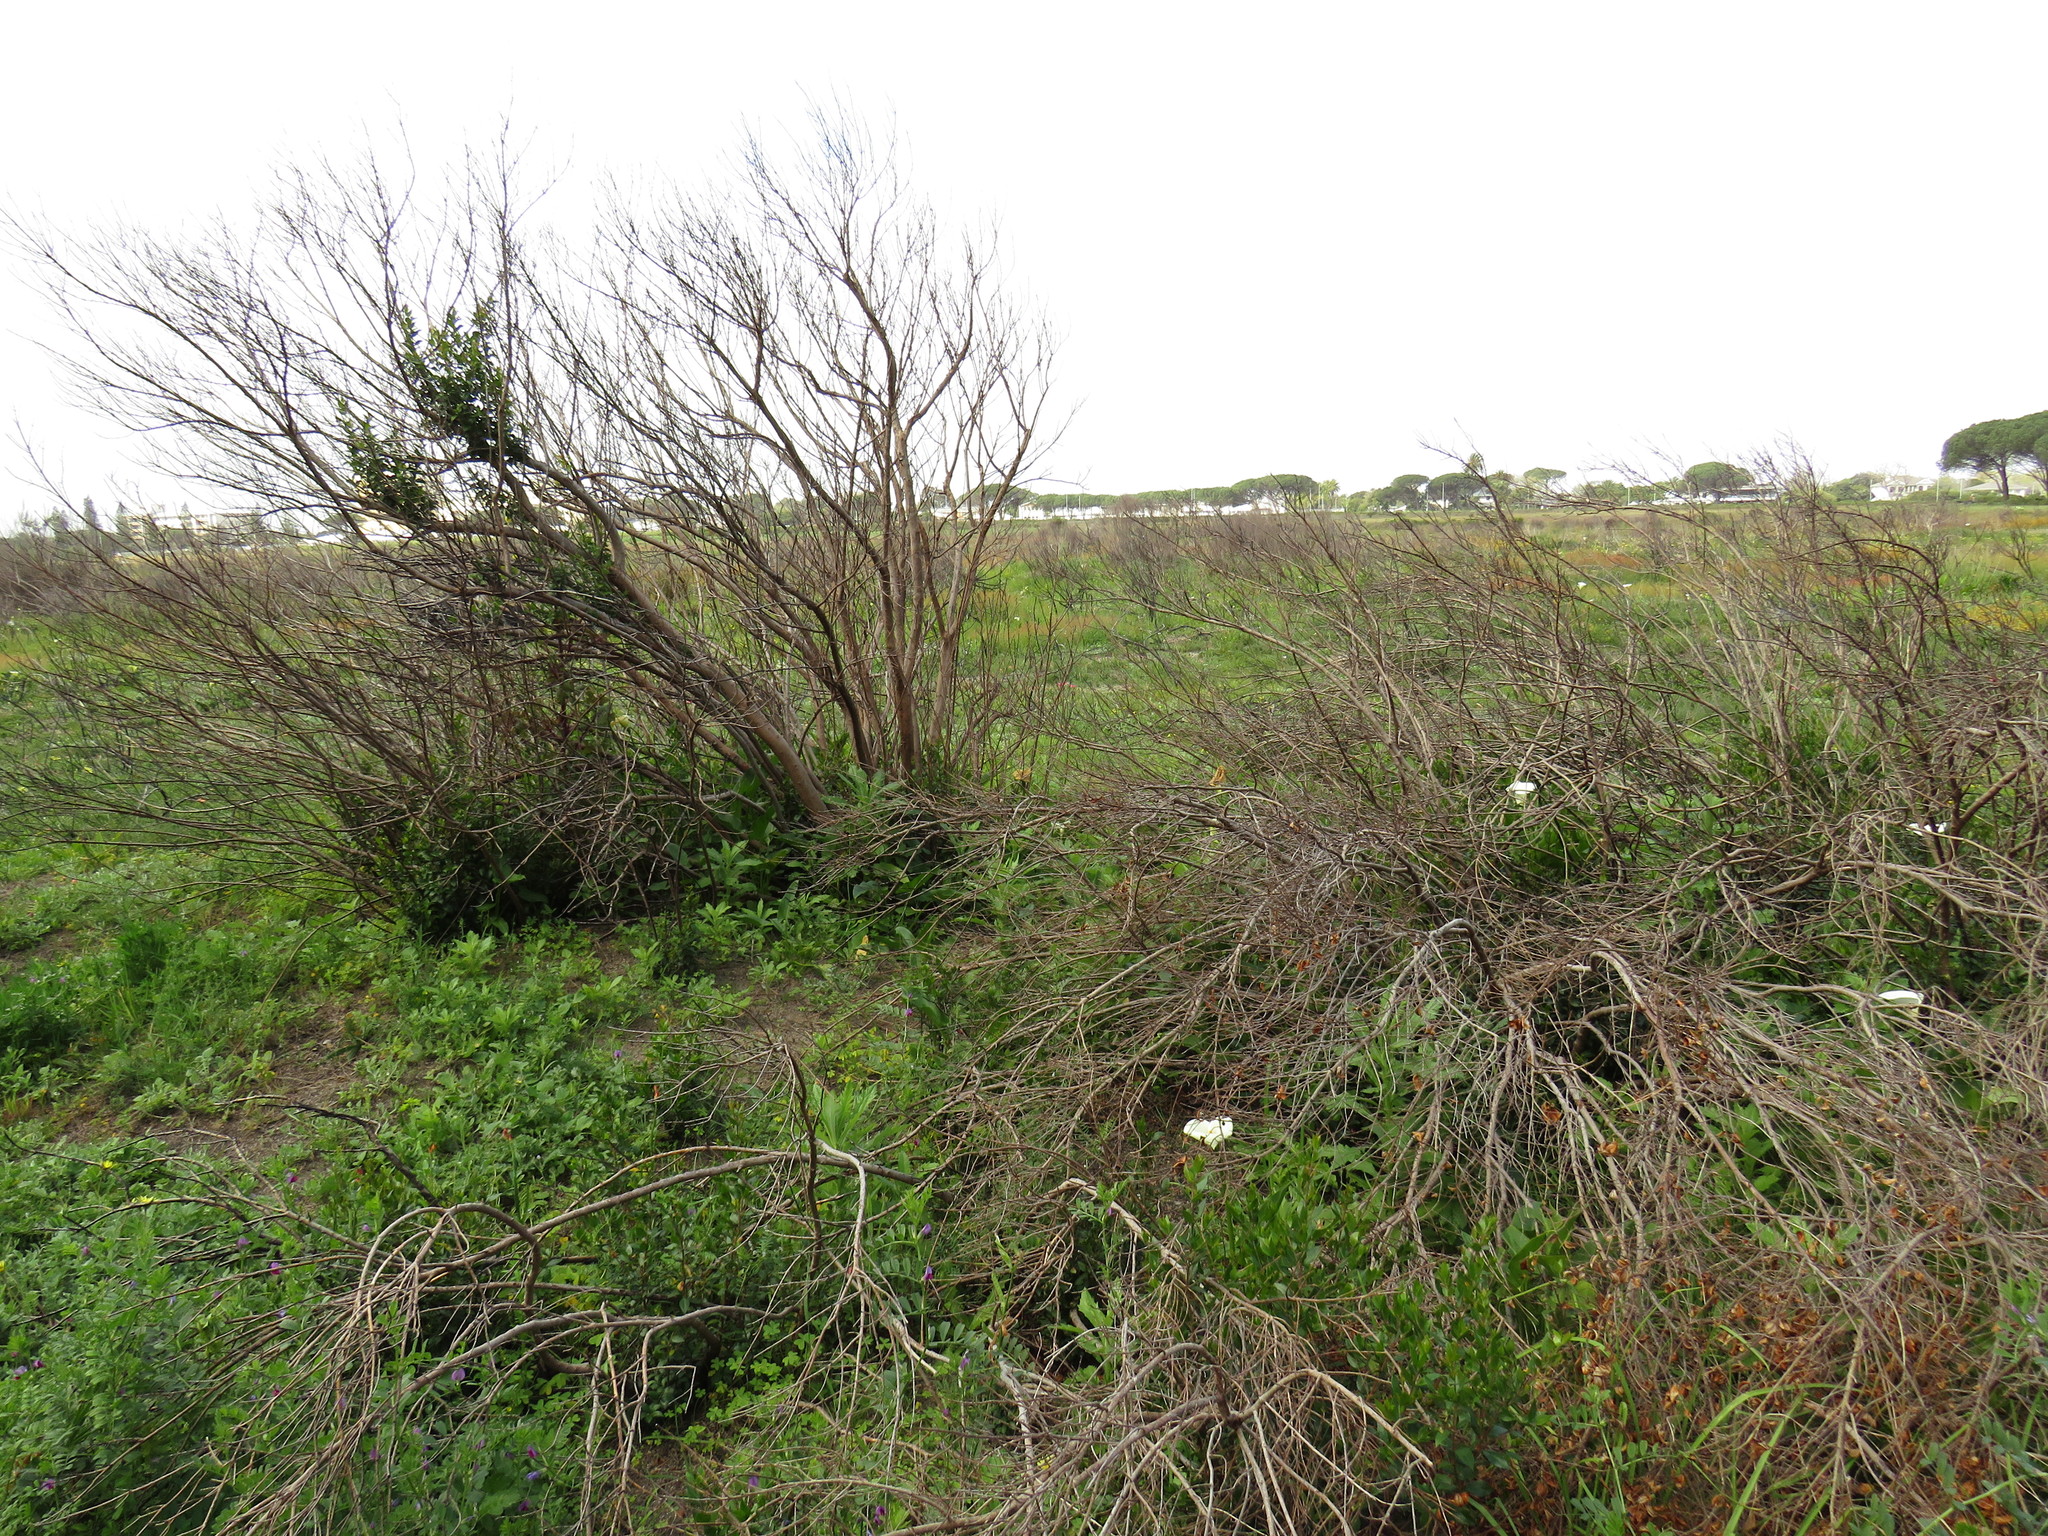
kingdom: Plantae
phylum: Tracheophyta
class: Magnoliopsida
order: Myrtales
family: Myrtaceae
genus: Myrtus
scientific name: Myrtus communis
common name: Myrtle
